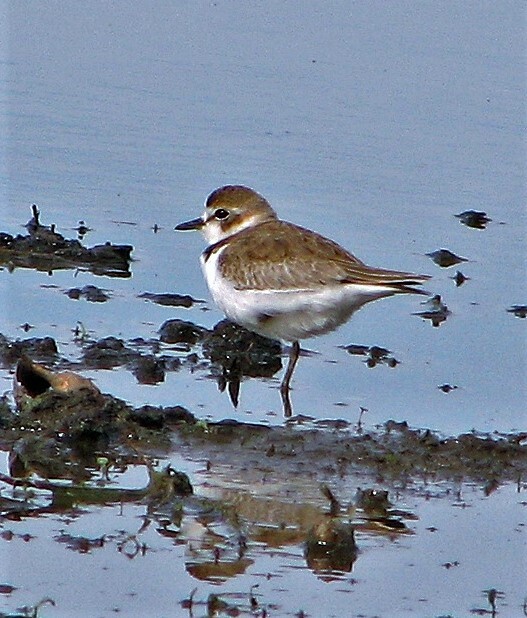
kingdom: Animalia
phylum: Chordata
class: Aves
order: Charadriiformes
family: Charadriidae
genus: Anarhynchus
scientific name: Anarhynchus
